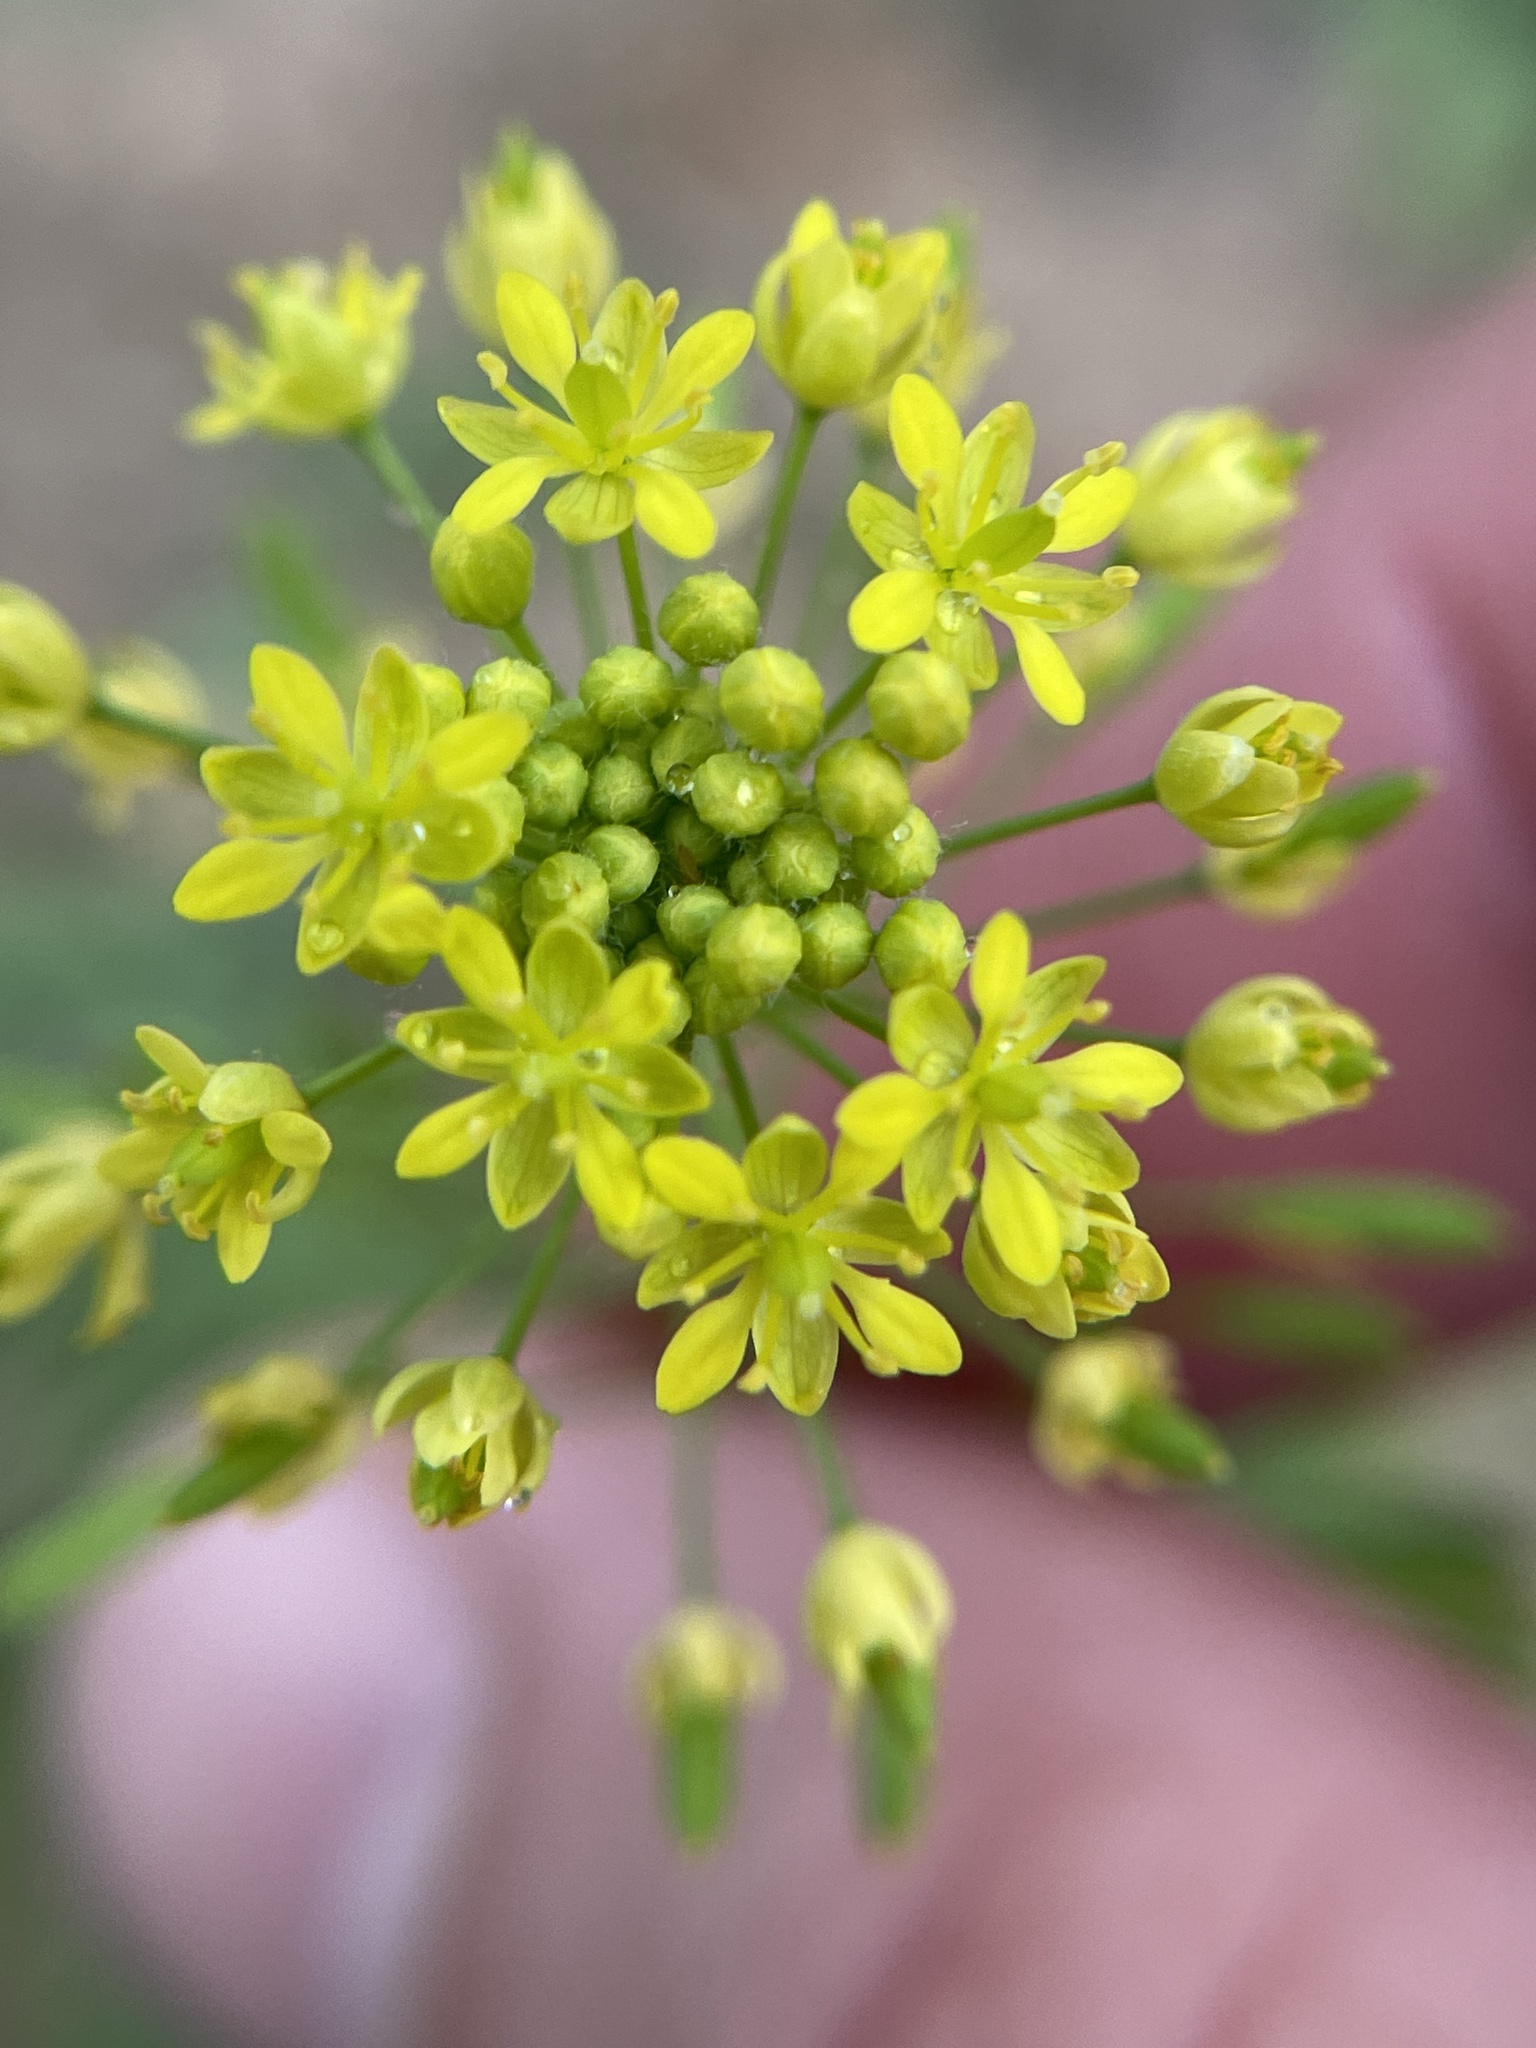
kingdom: Plantae
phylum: Tracheophyta
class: Magnoliopsida
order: Brassicales
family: Brassicaceae
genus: Descurainia
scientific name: Descurainia pinnata
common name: Western tansy mustard
